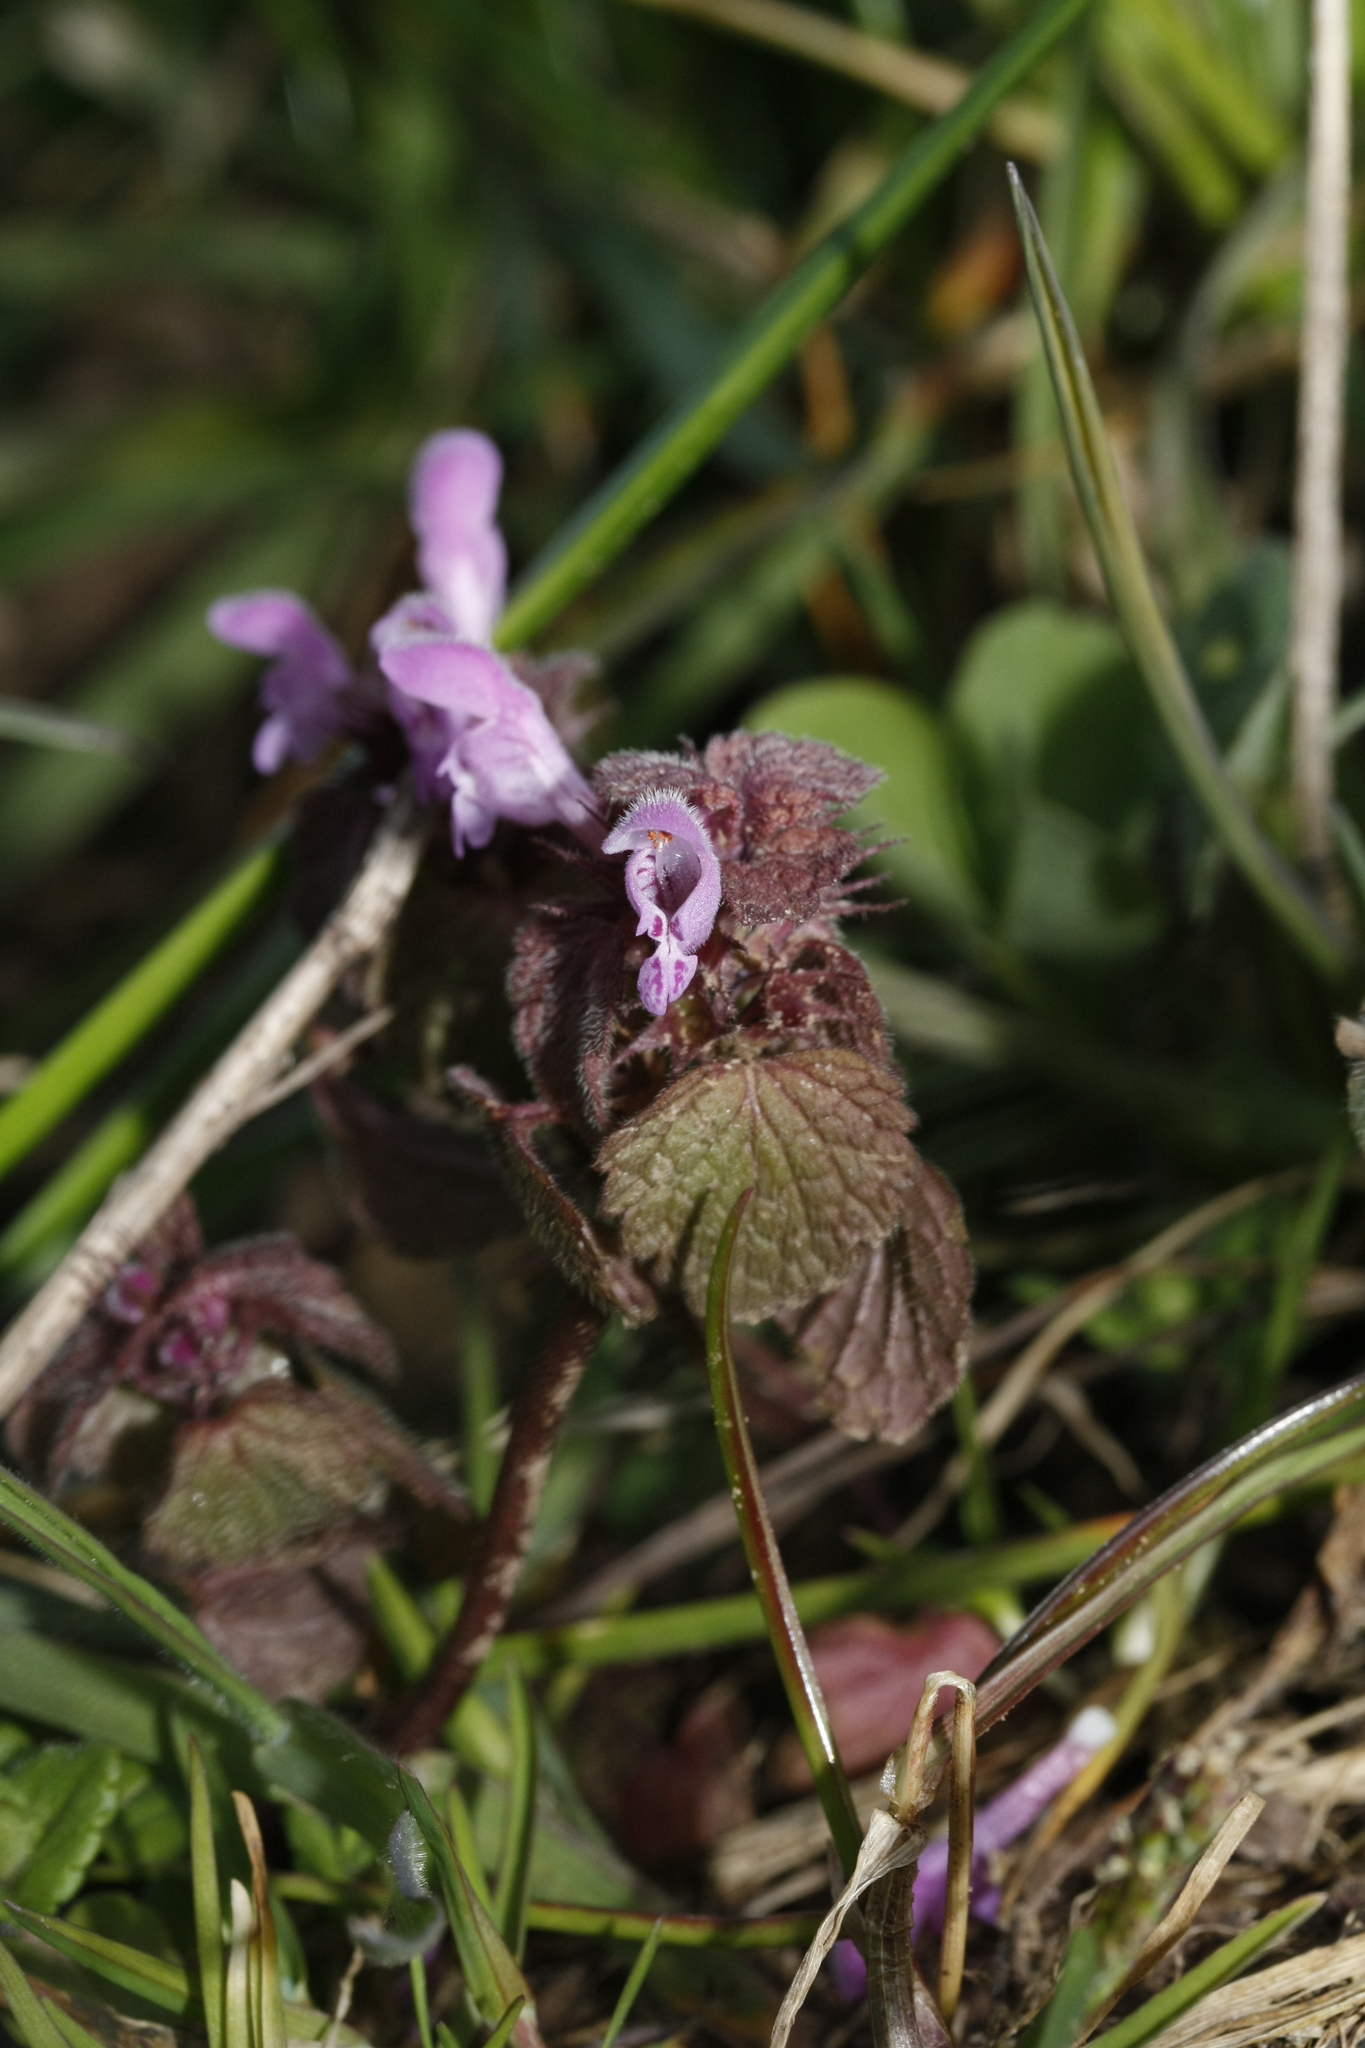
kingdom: Plantae
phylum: Tracheophyta
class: Magnoliopsida
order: Lamiales
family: Lamiaceae
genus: Lamium
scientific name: Lamium purpureum
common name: Red dead-nettle
